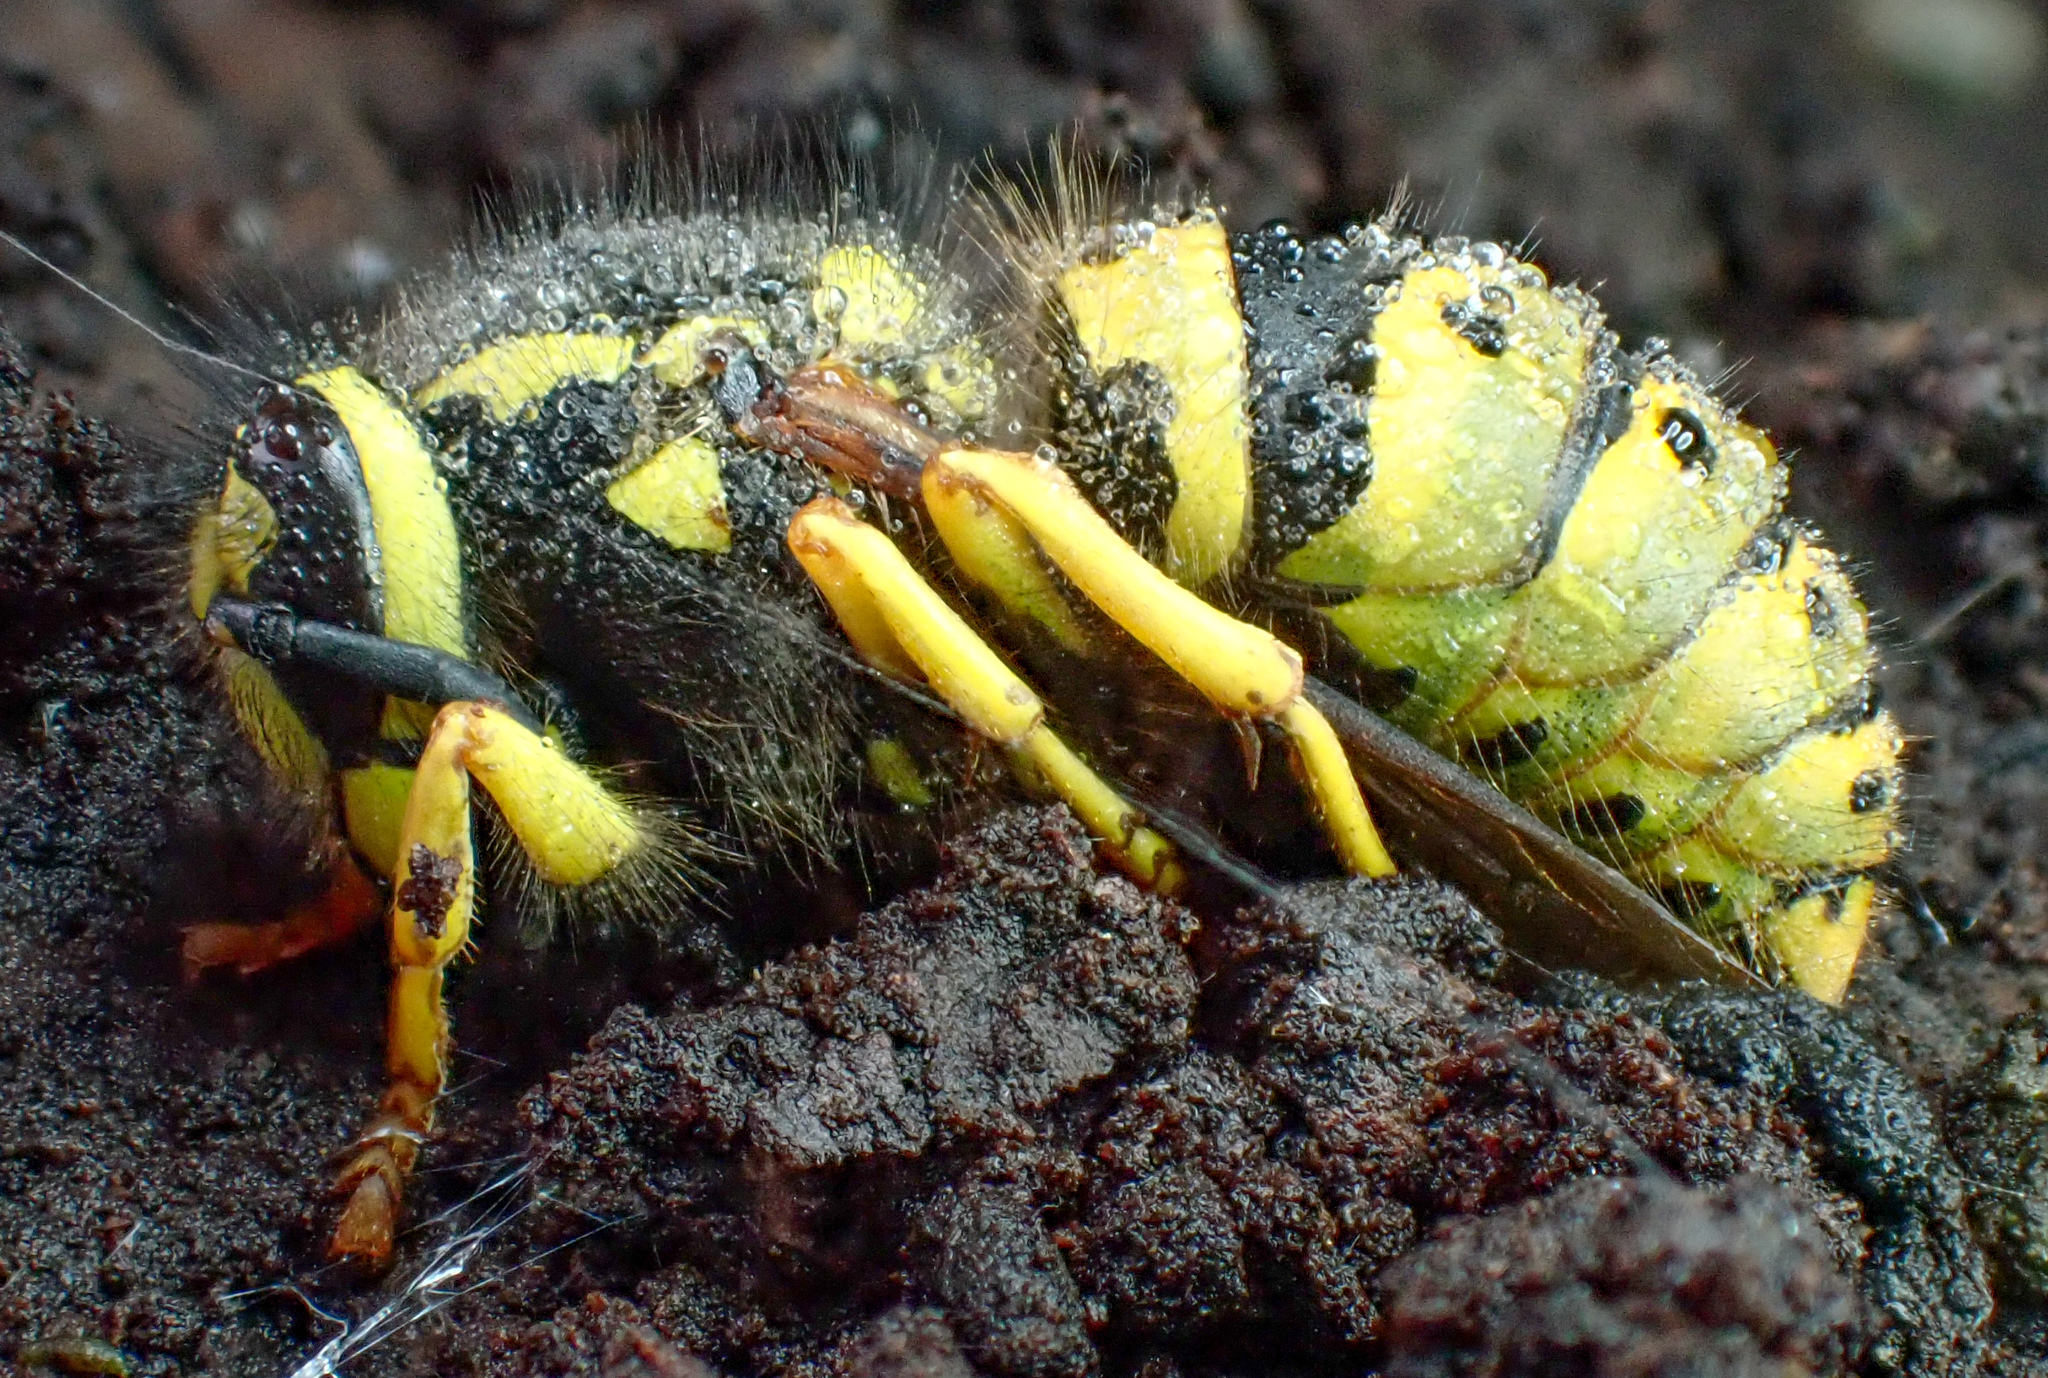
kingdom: Animalia
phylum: Arthropoda
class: Insecta
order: Hymenoptera
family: Vespidae
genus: Vespula
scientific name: Vespula pensylvanica
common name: Western yellowjacket
